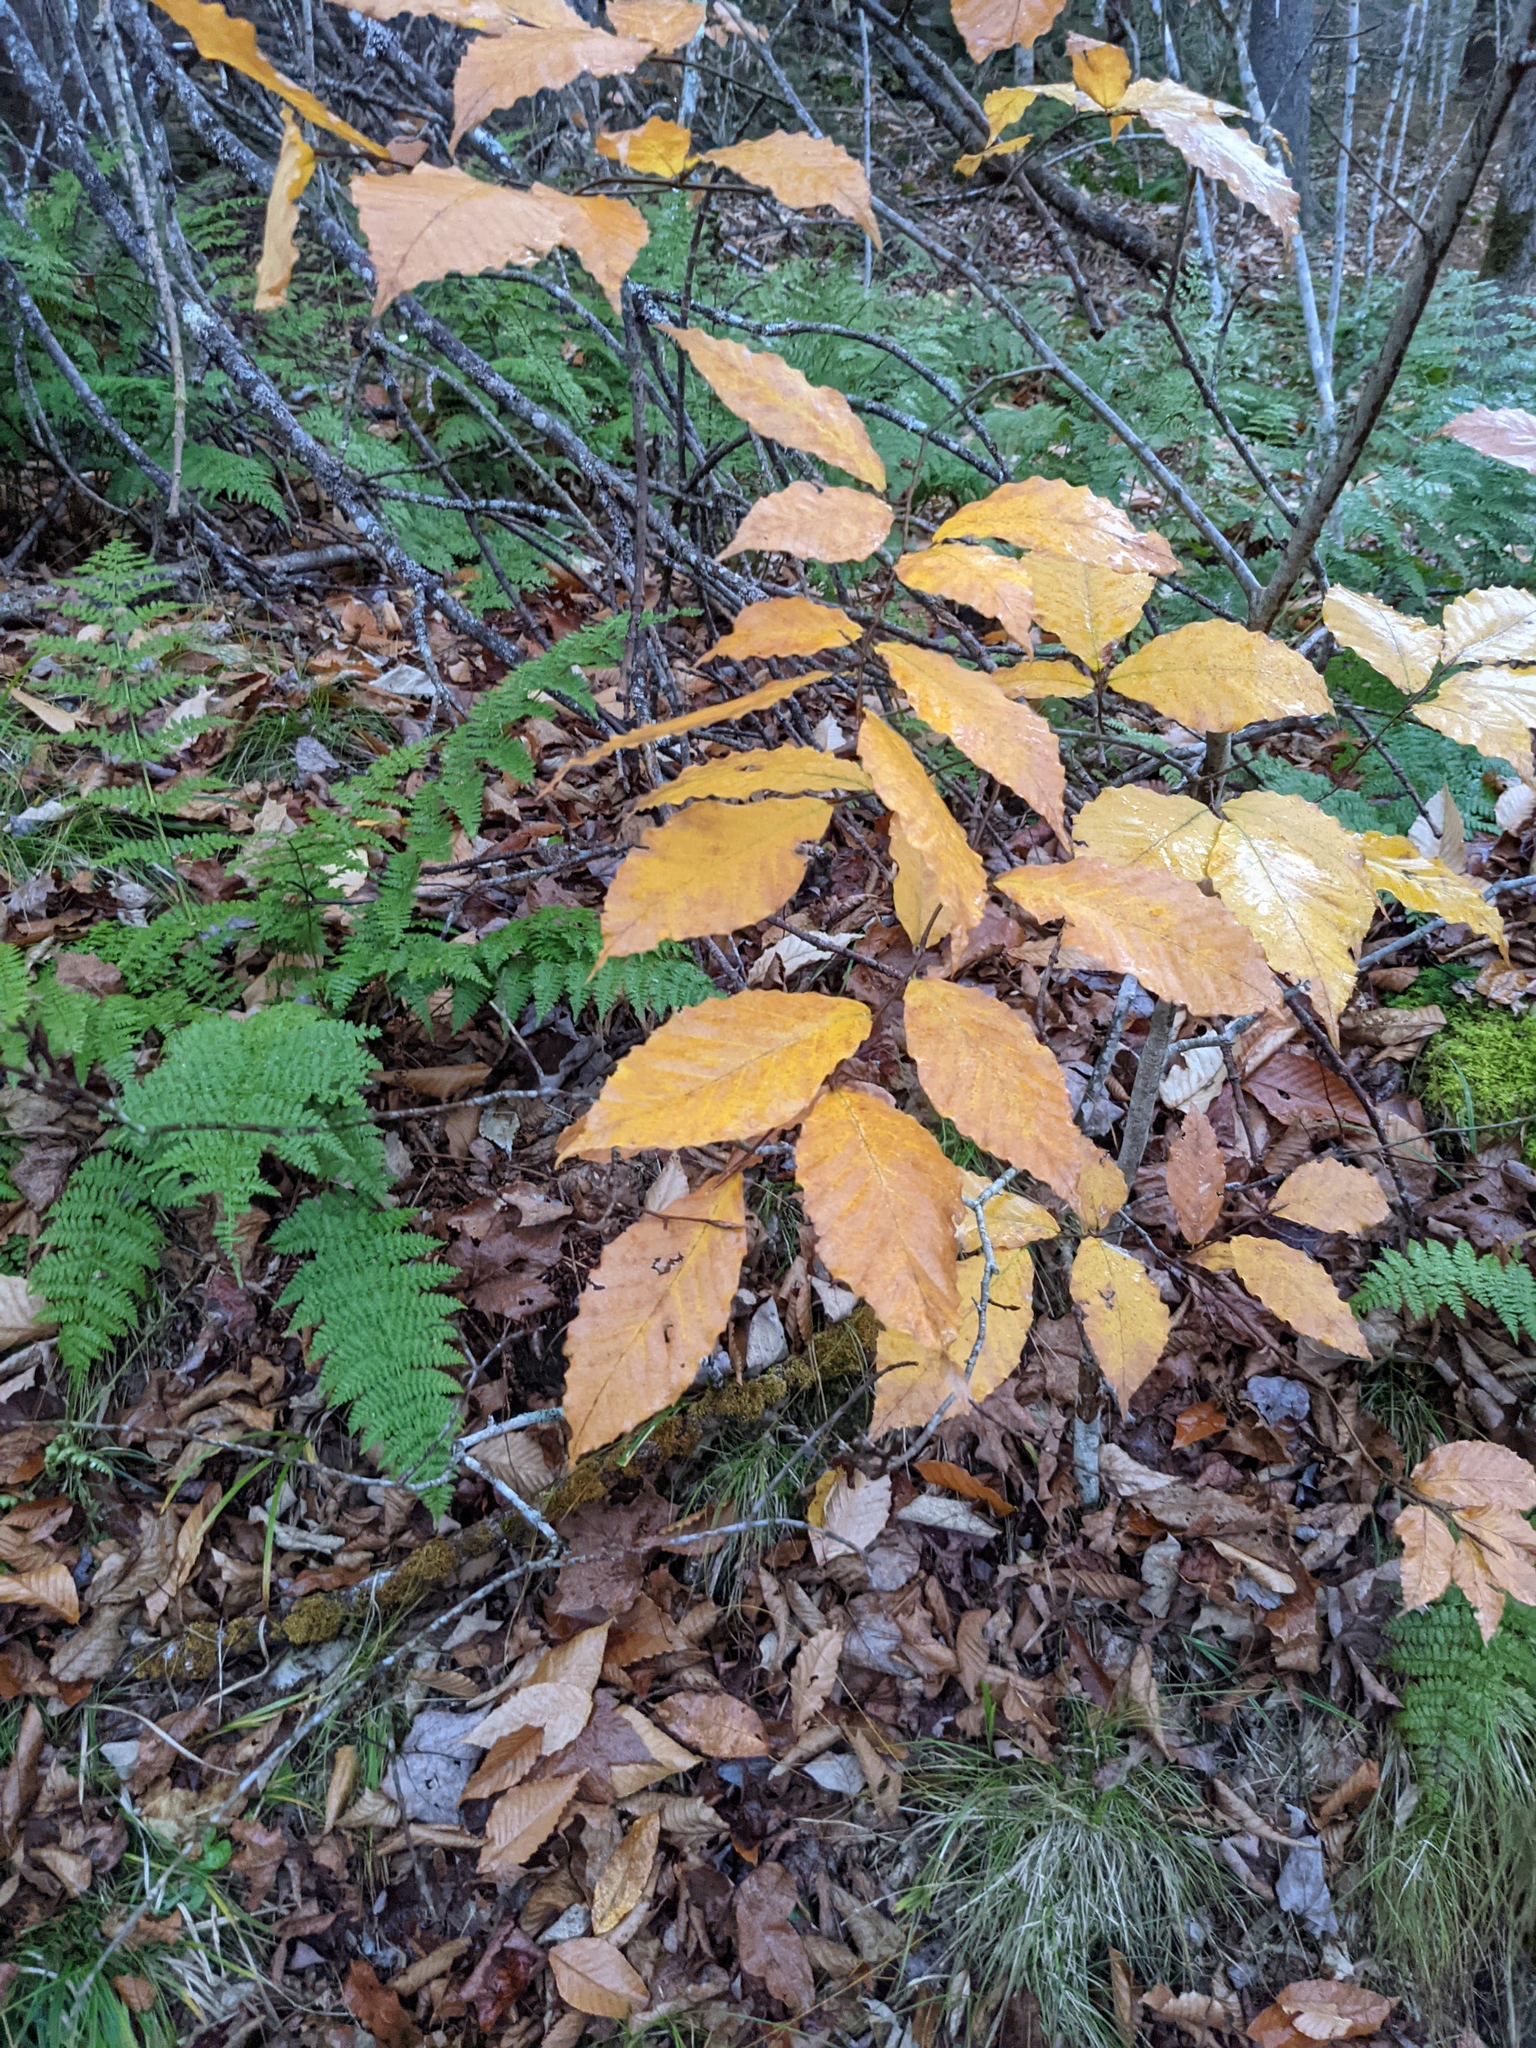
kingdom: Plantae
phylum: Tracheophyta
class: Magnoliopsida
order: Fagales
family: Fagaceae
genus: Fagus
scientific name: Fagus grandifolia
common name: American beech
